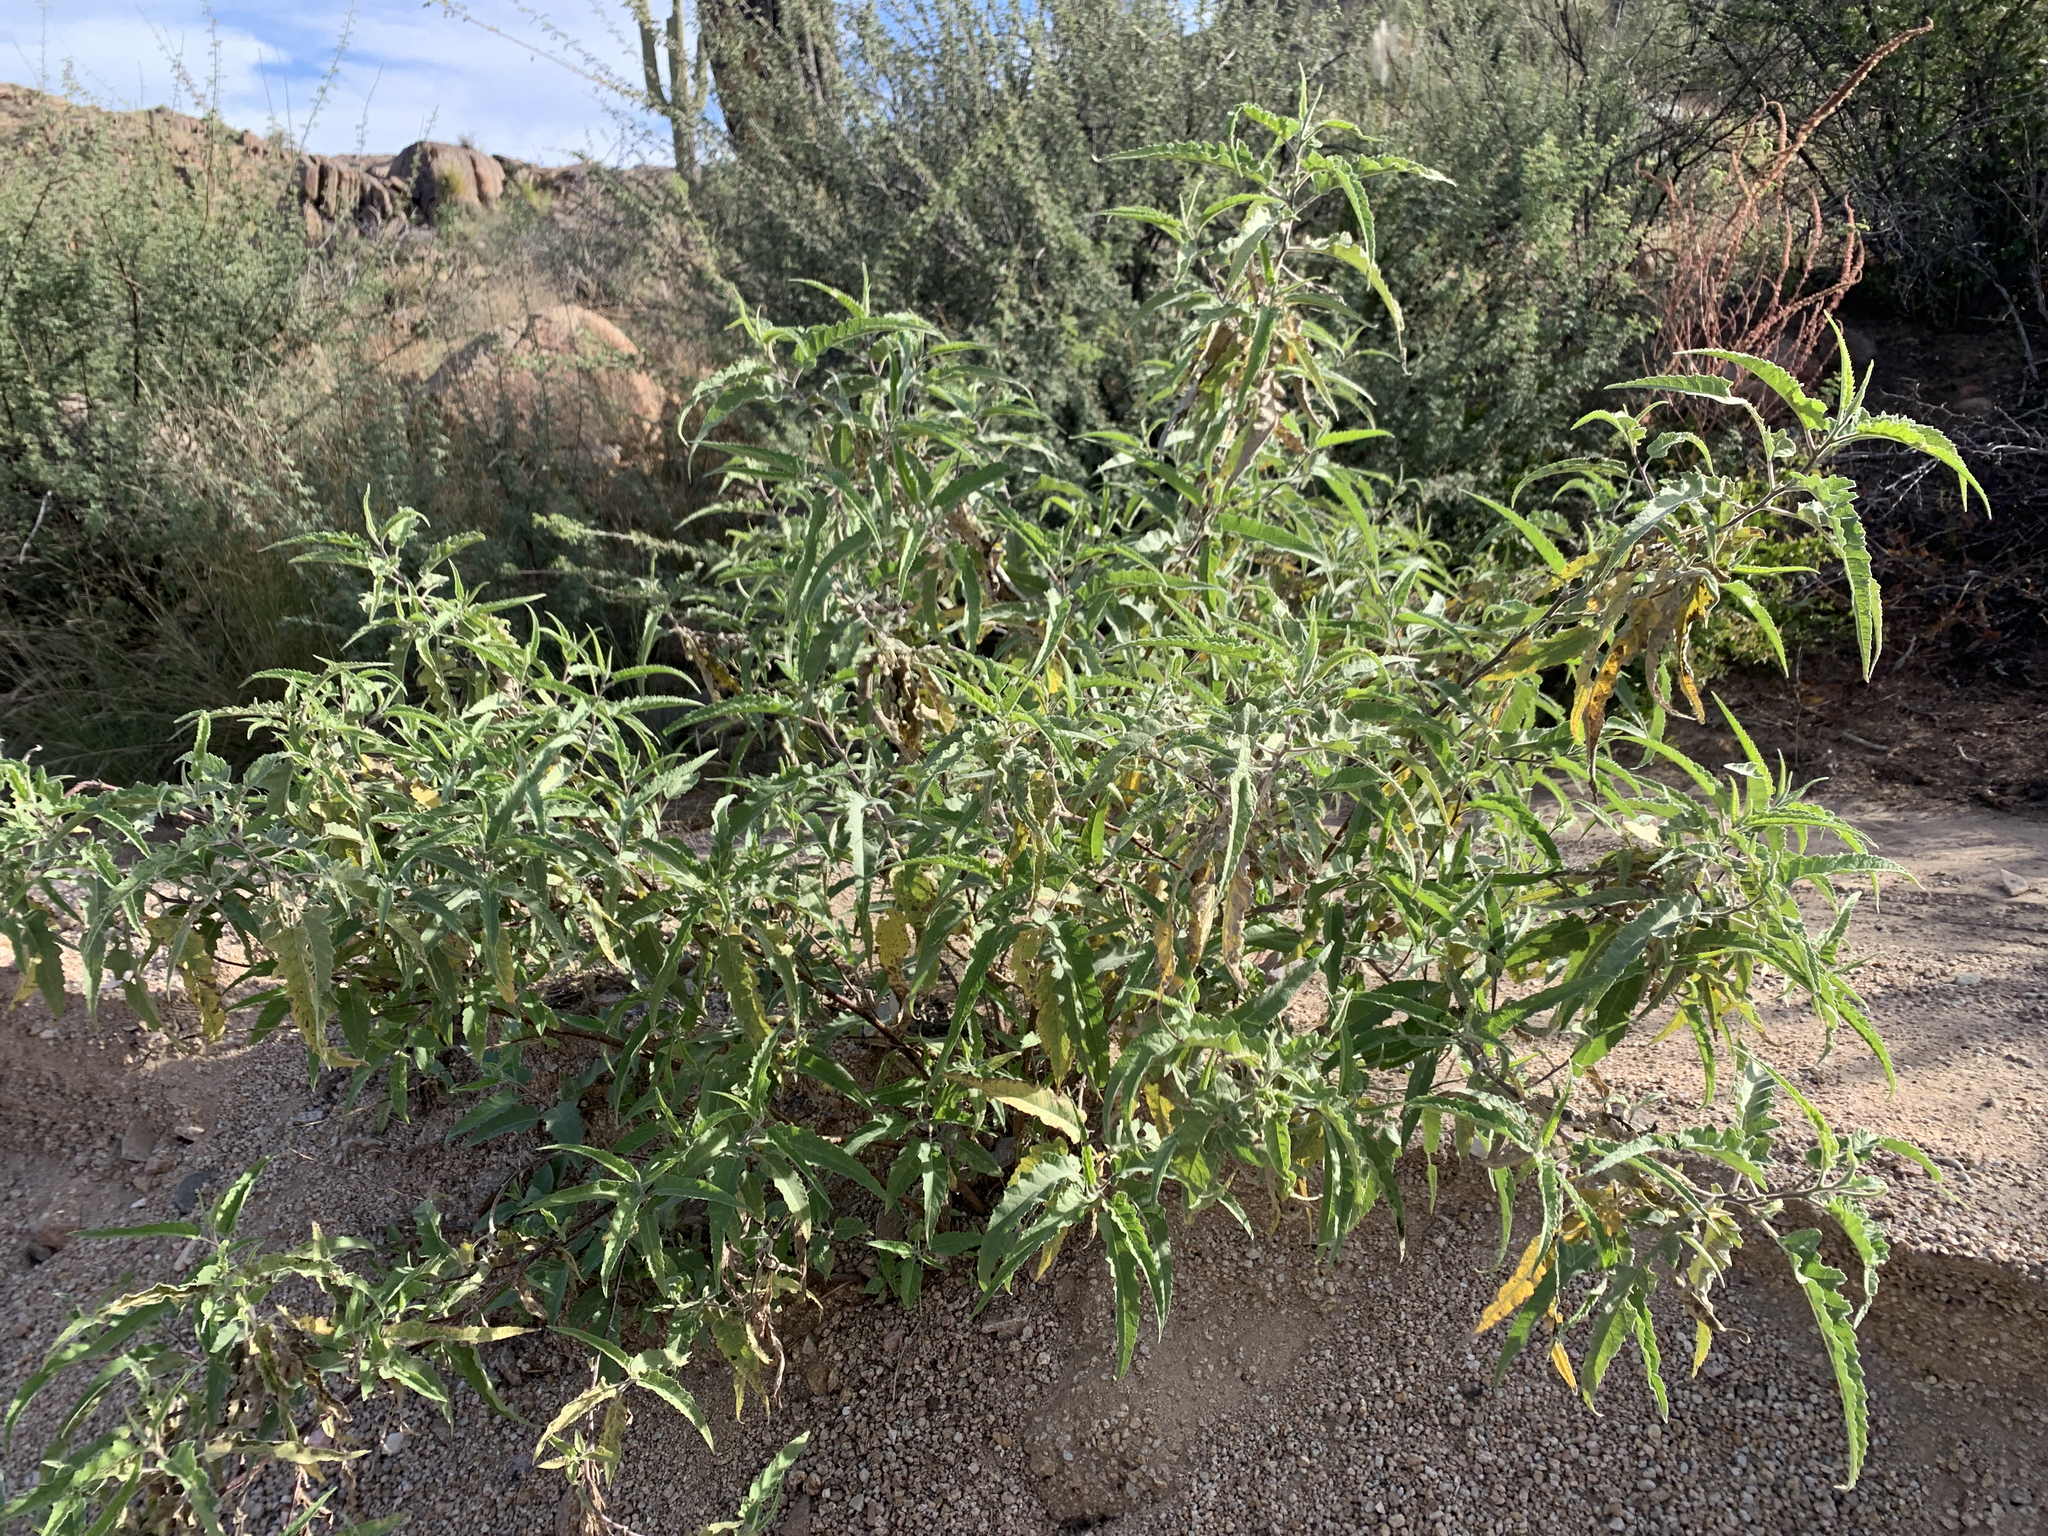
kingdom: Plantae
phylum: Tracheophyta
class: Magnoliopsida
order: Asterales
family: Asteraceae
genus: Ambrosia
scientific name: Ambrosia ambrosioides
